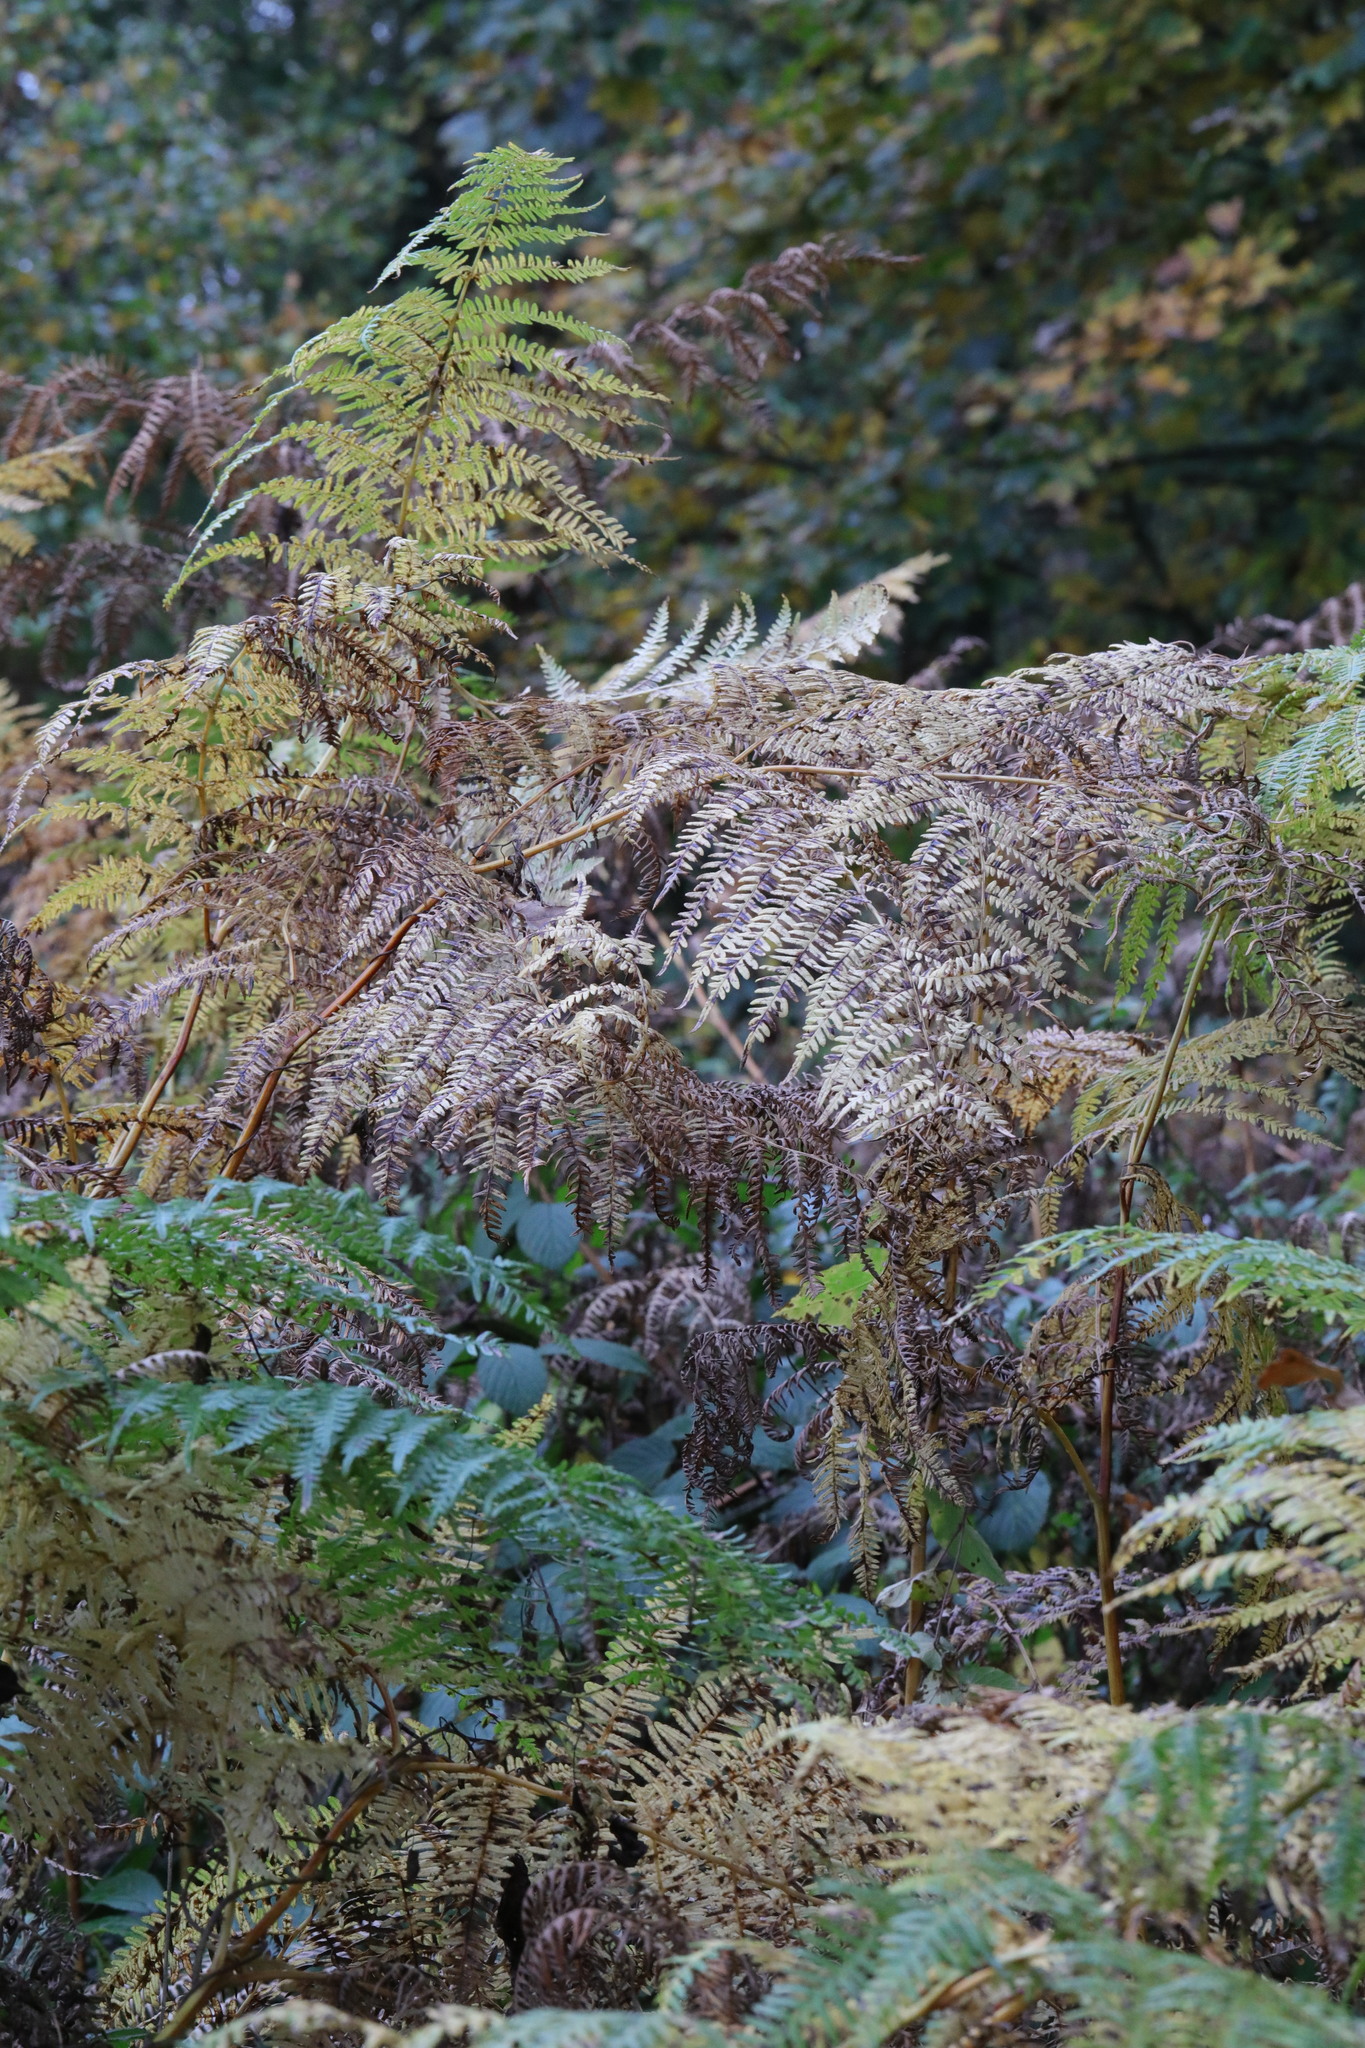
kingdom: Plantae
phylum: Tracheophyta
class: Polypodiopsida
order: Polypodiales
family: Dennstaedtiaceae
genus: Pteridium
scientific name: Pteridium aquilinum
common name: Bracken
